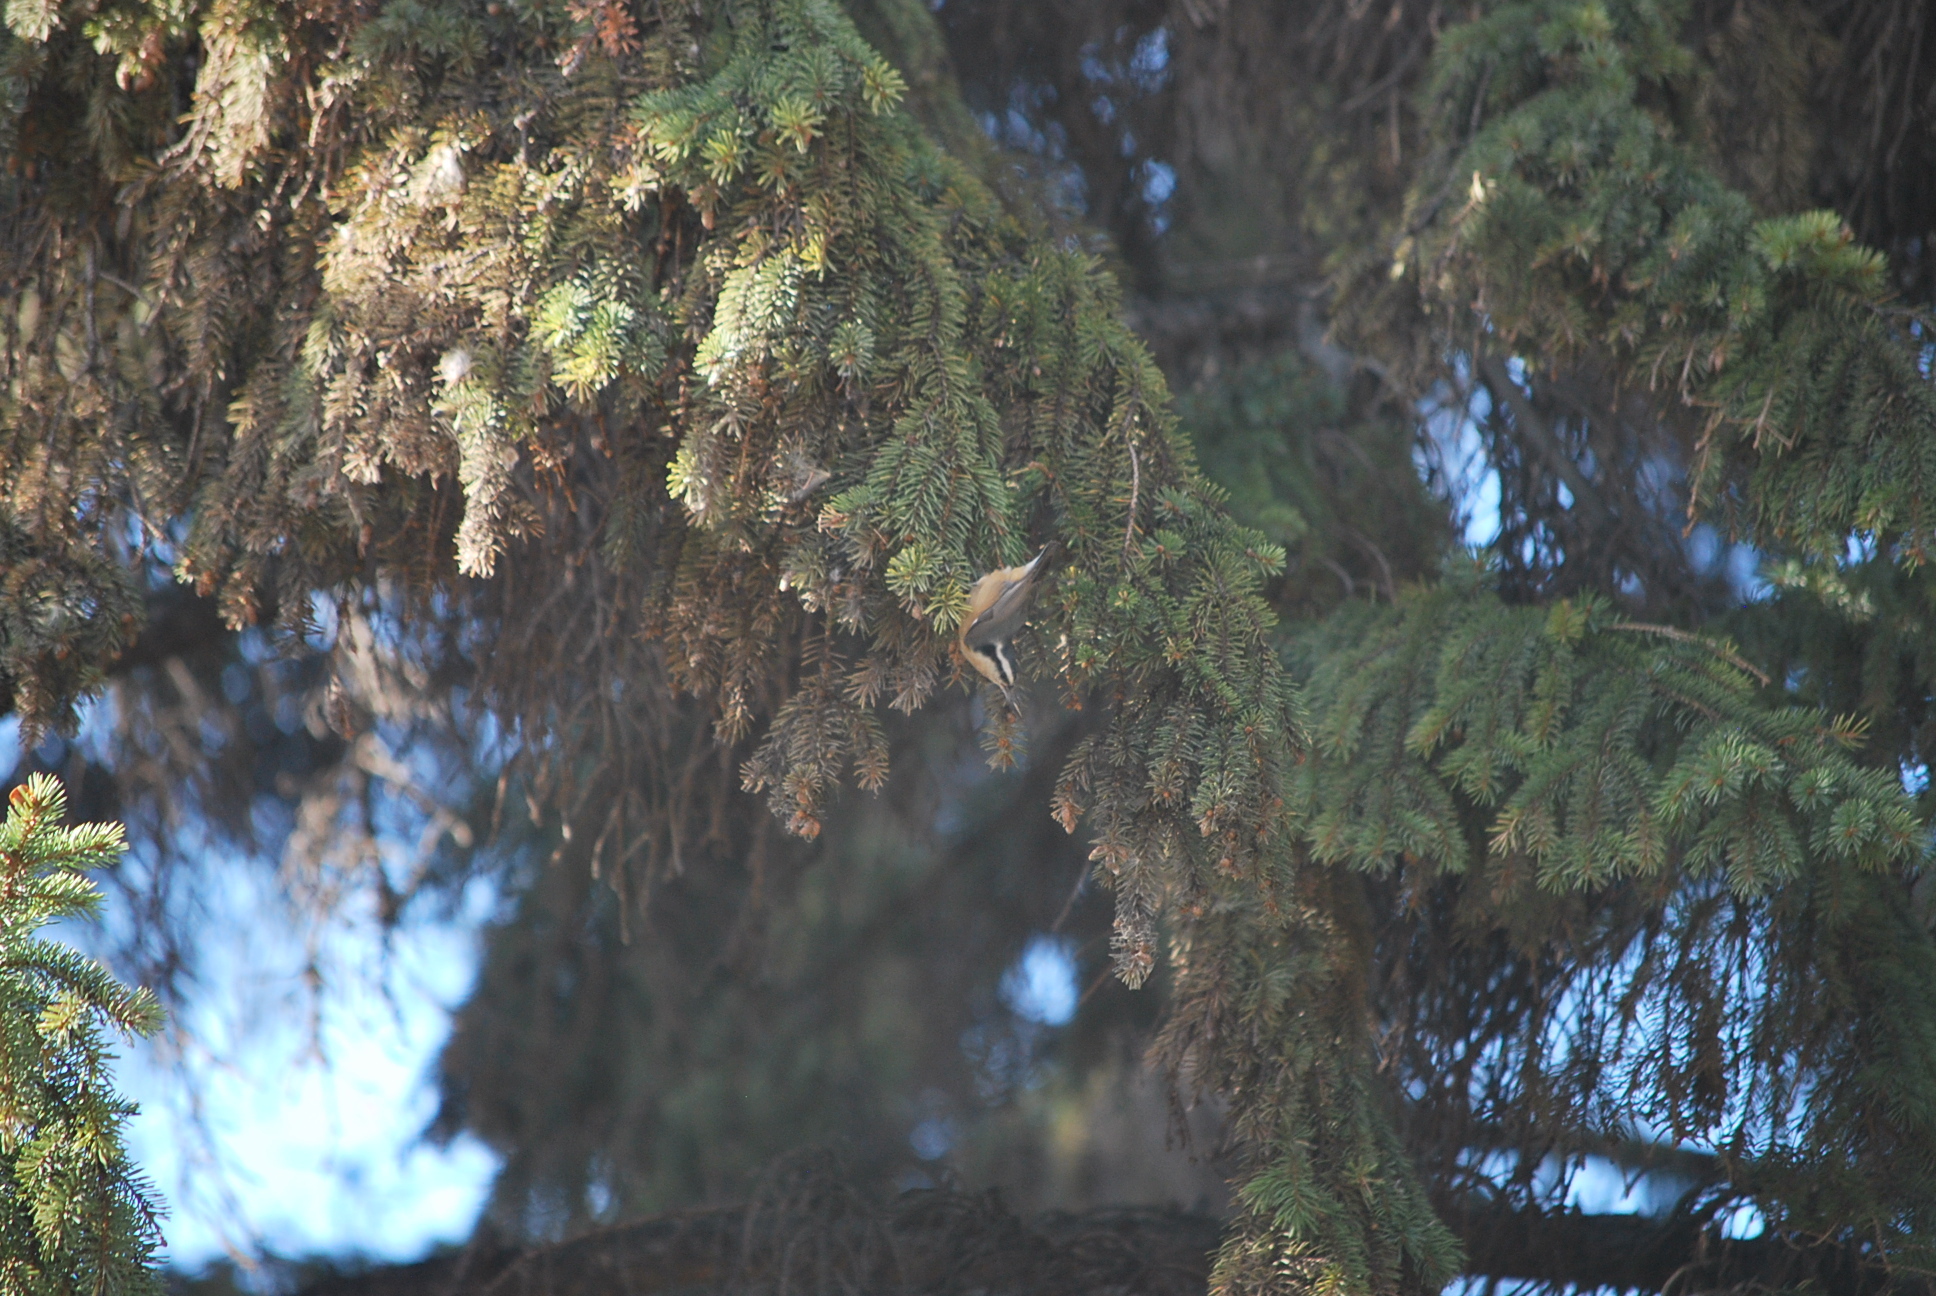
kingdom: Animalia
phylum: Chordata
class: Aves
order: Passeriformes
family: Sittidae
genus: Sitta
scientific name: Sitta canadensis
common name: Red-breasted nuthatch
